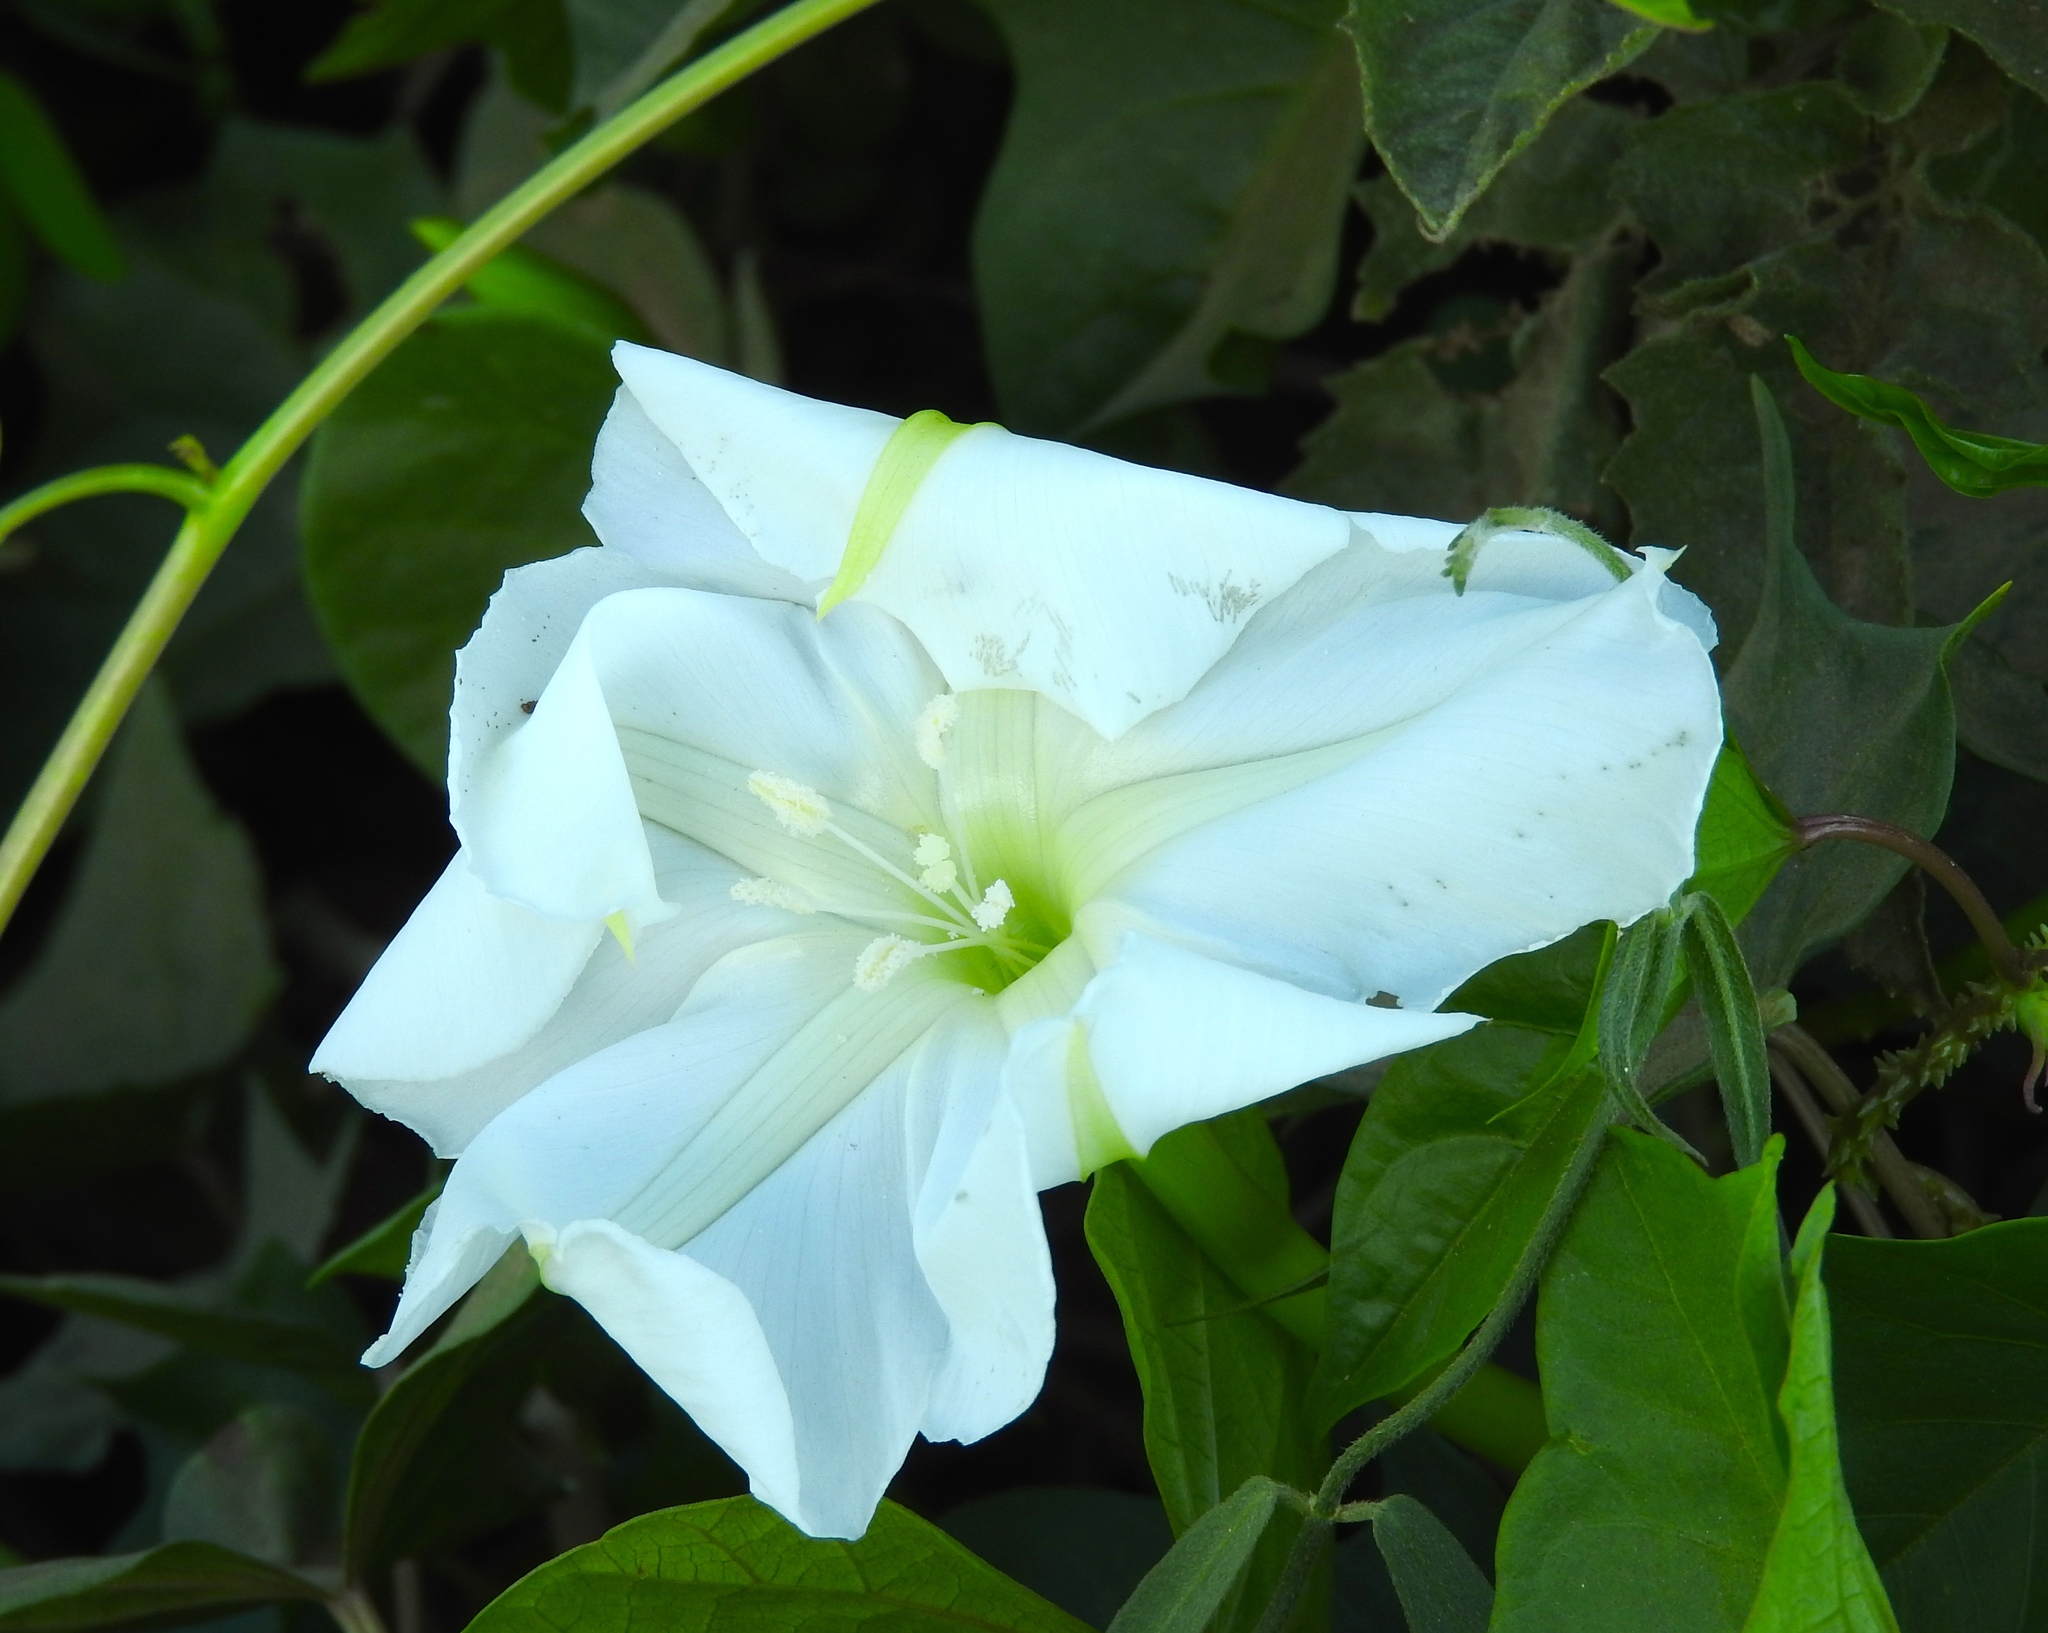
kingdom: Plantae
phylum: Tracheophyta
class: Magnoliopsida
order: Solanales
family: Convolvulaceae
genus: Ipomoea
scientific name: Ipomoea alba
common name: Moonflower
